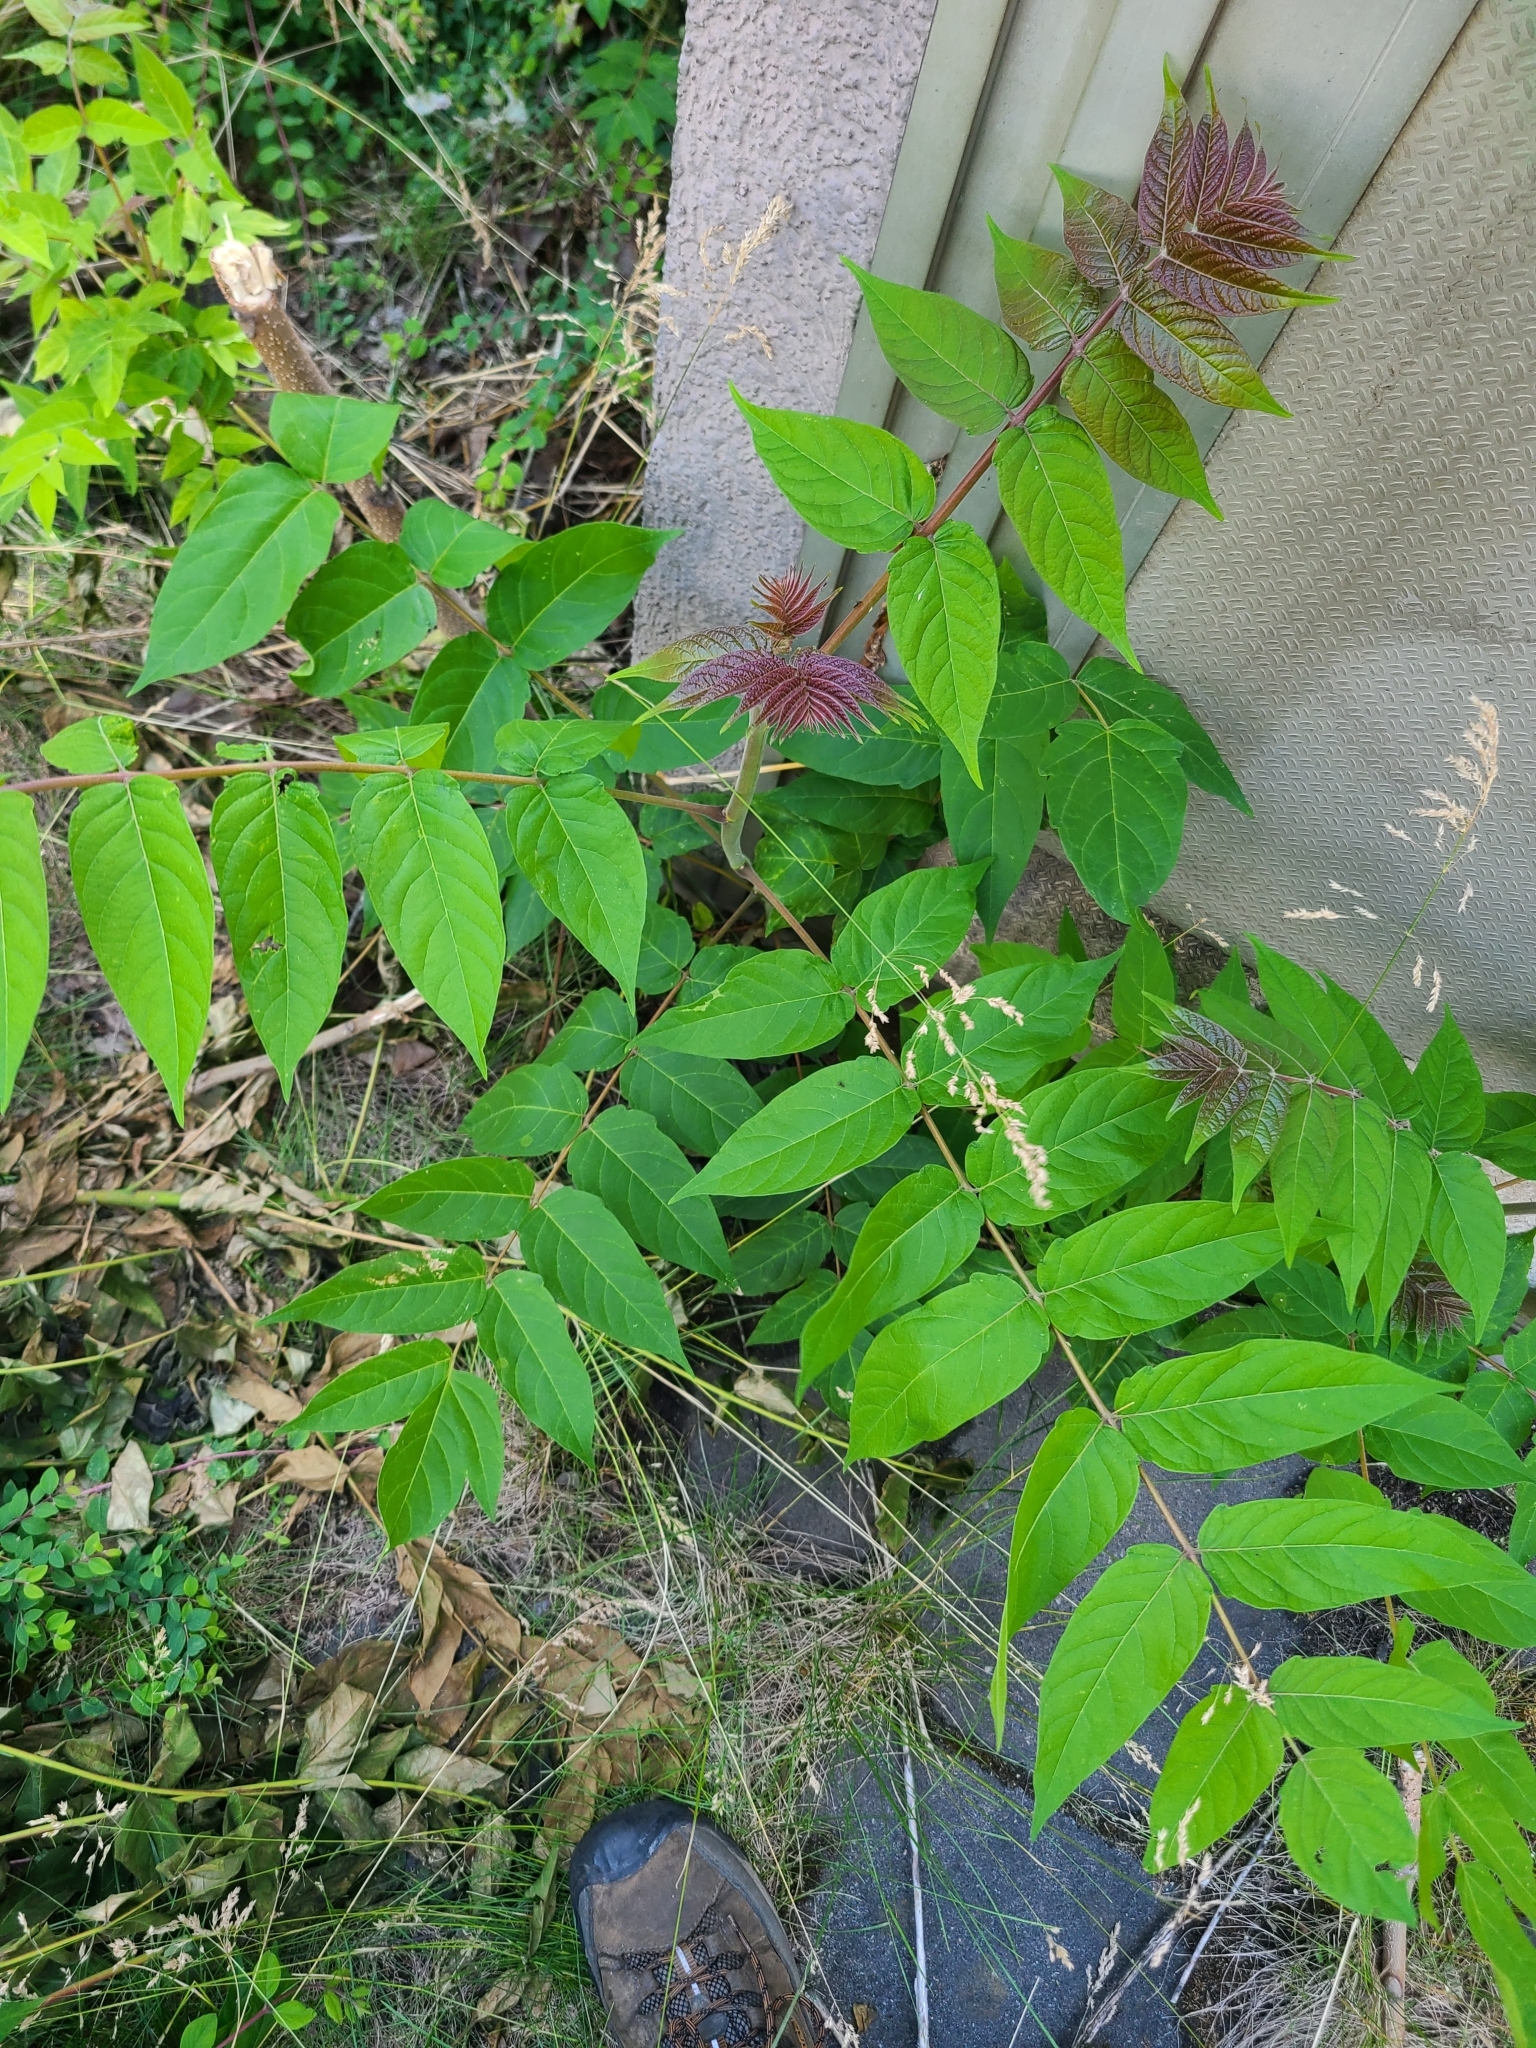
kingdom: Plantae
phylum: Tracheophyta
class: Magnoliopsida
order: Sapindales
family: Simaroubaceae
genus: Ailanthus
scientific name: Ailanthus altissima
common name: Tree-of-heaven
